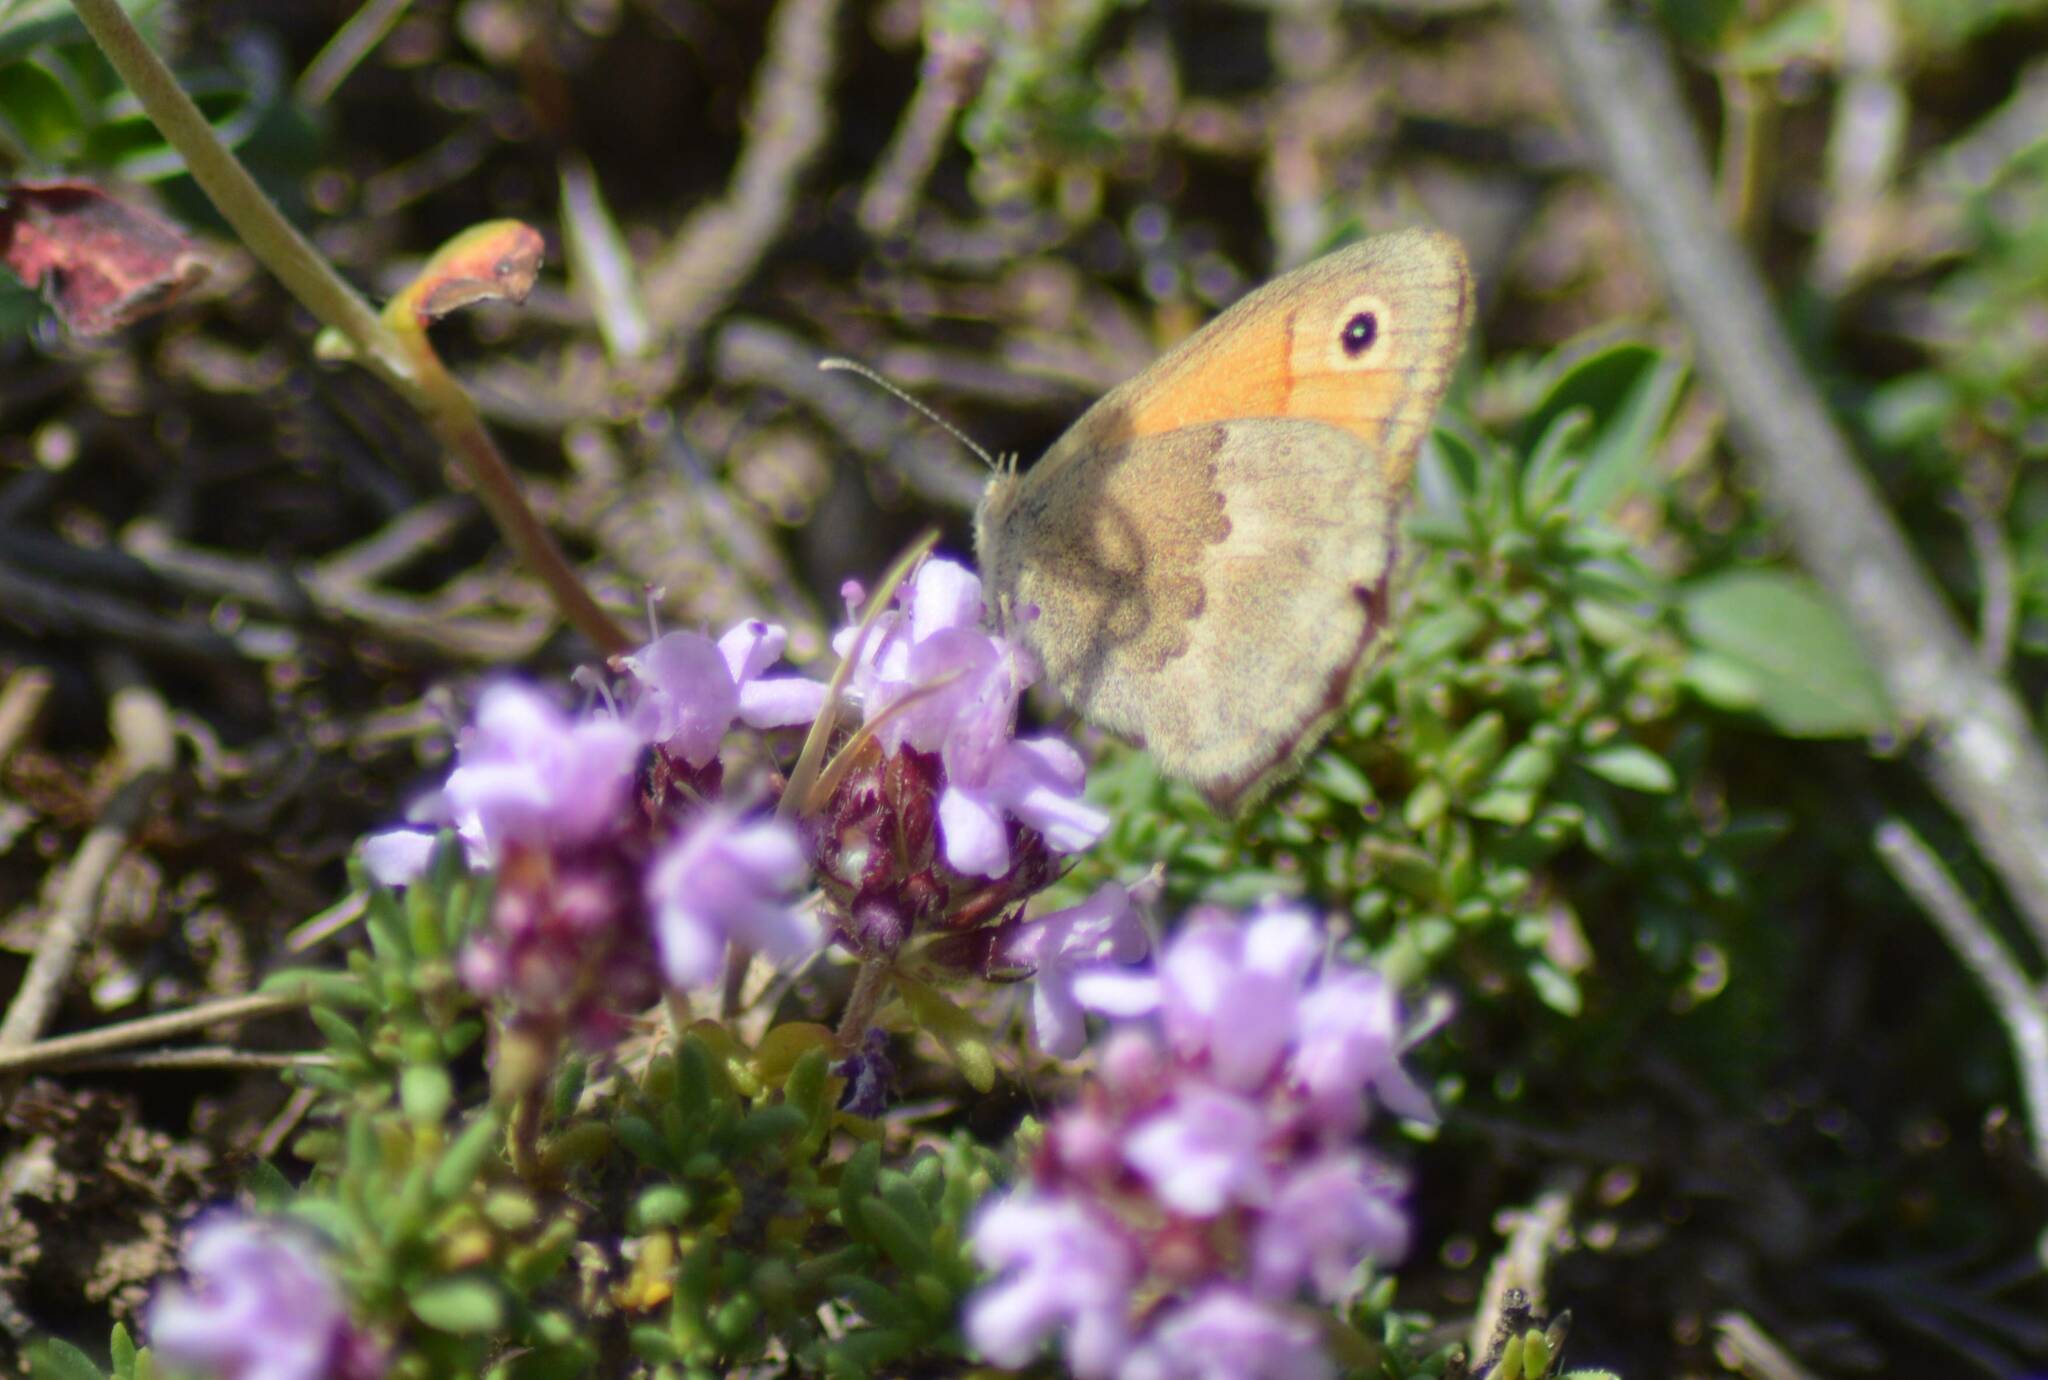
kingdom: Animalia
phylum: Arthropoda
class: Insecta
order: Lepidoptera
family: Nymphalidae
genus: Coenonympha
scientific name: Coenonympha pamphilus
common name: Small heath
